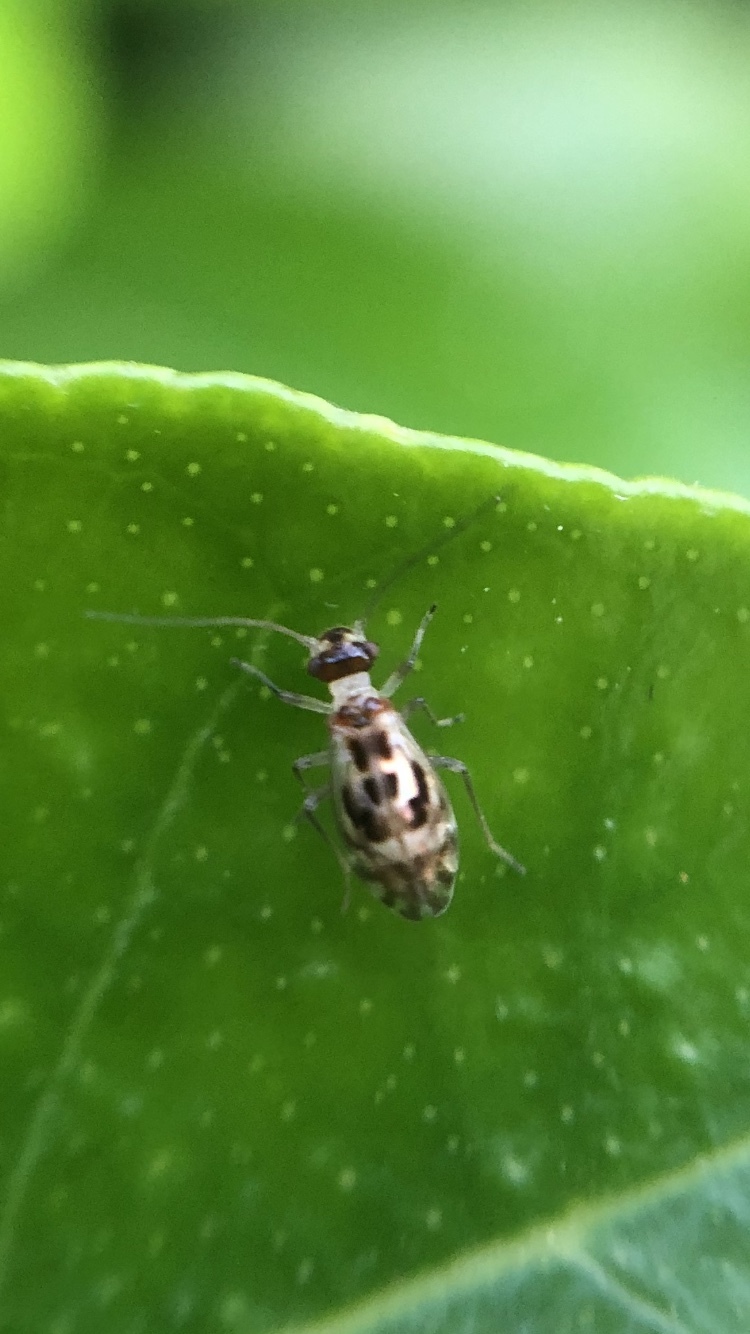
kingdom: Animalia
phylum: Arthropoda
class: Insecta
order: Psocodea
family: Stenopsocidae
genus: Graphopsocus
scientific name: Graphopsocus cruciatus
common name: Lizard bark louse
